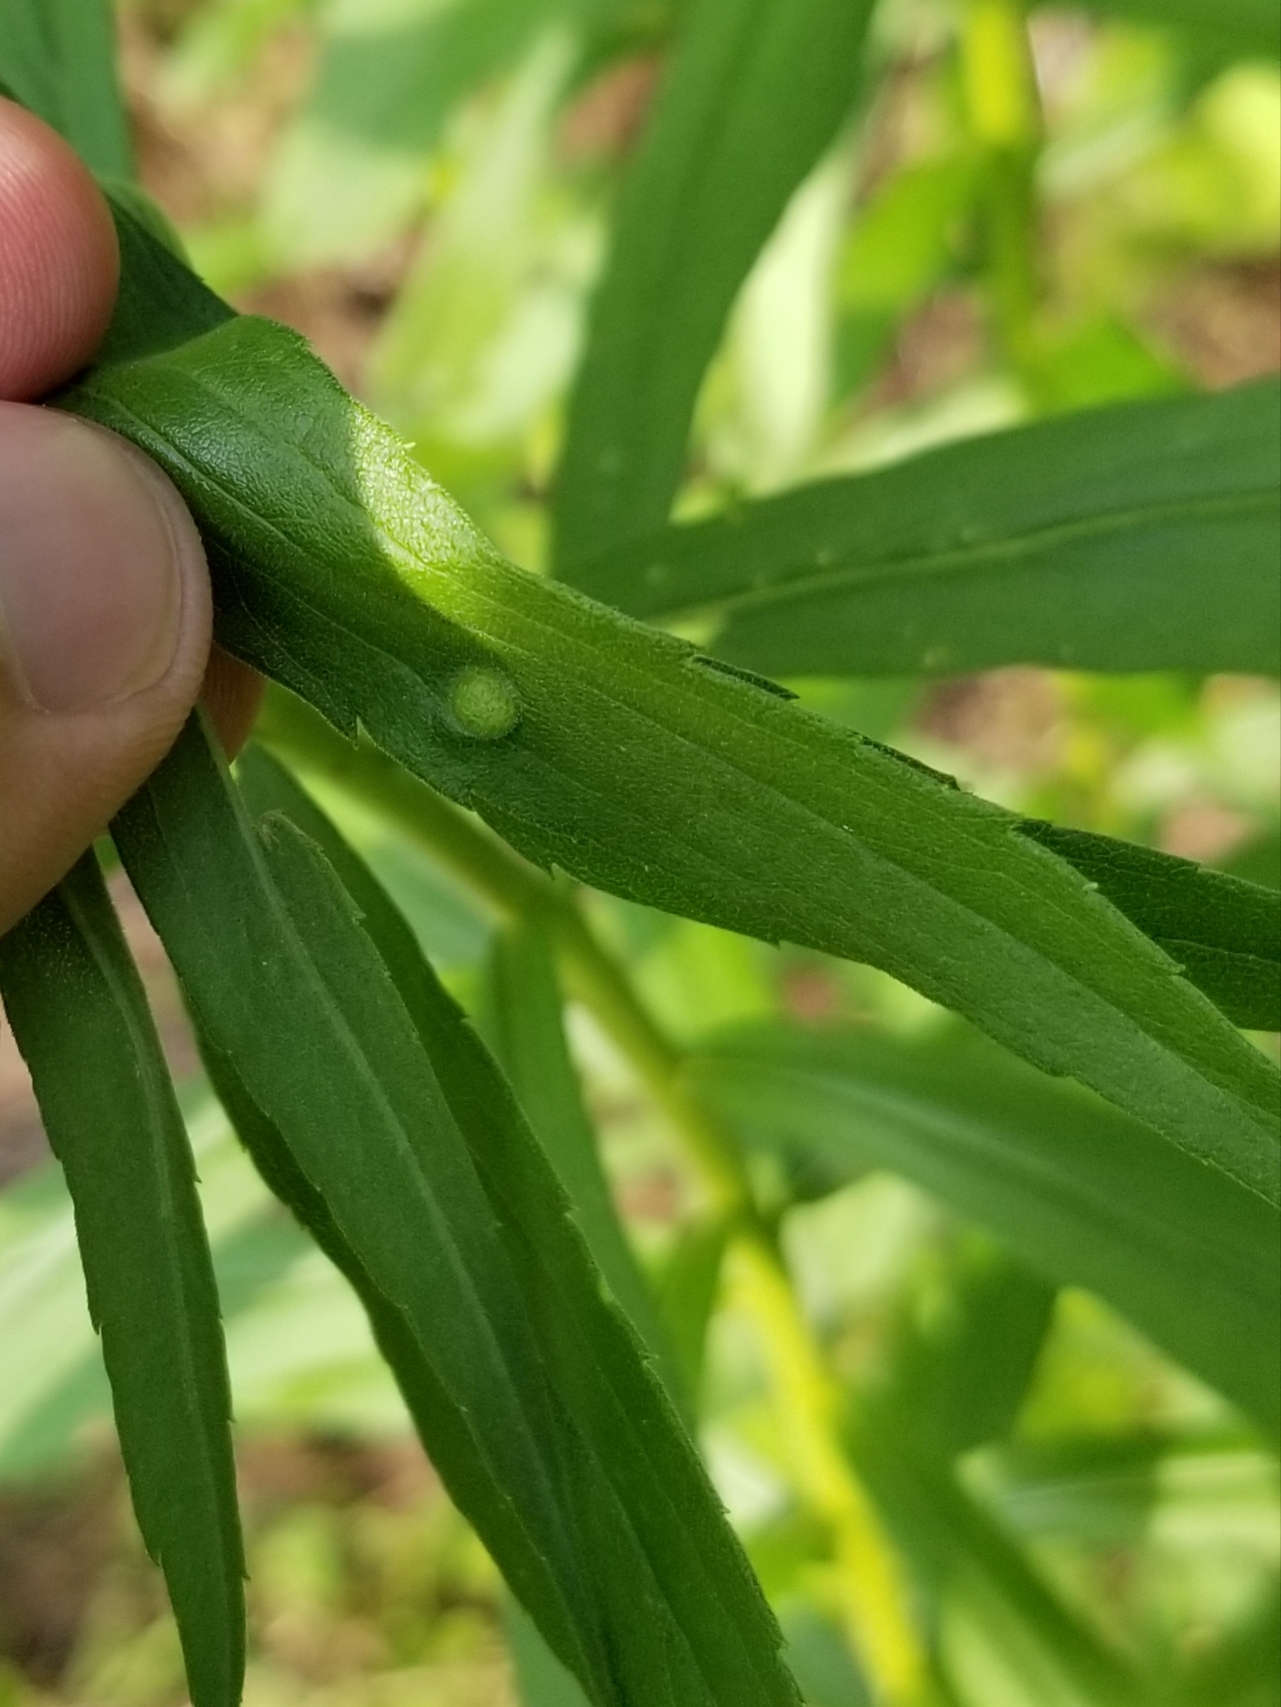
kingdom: Animalia
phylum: Arthropoda
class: Insecta
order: Diptera
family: Cecidomyiidae
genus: Asphondylia
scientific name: Asphondylia solidaginis
